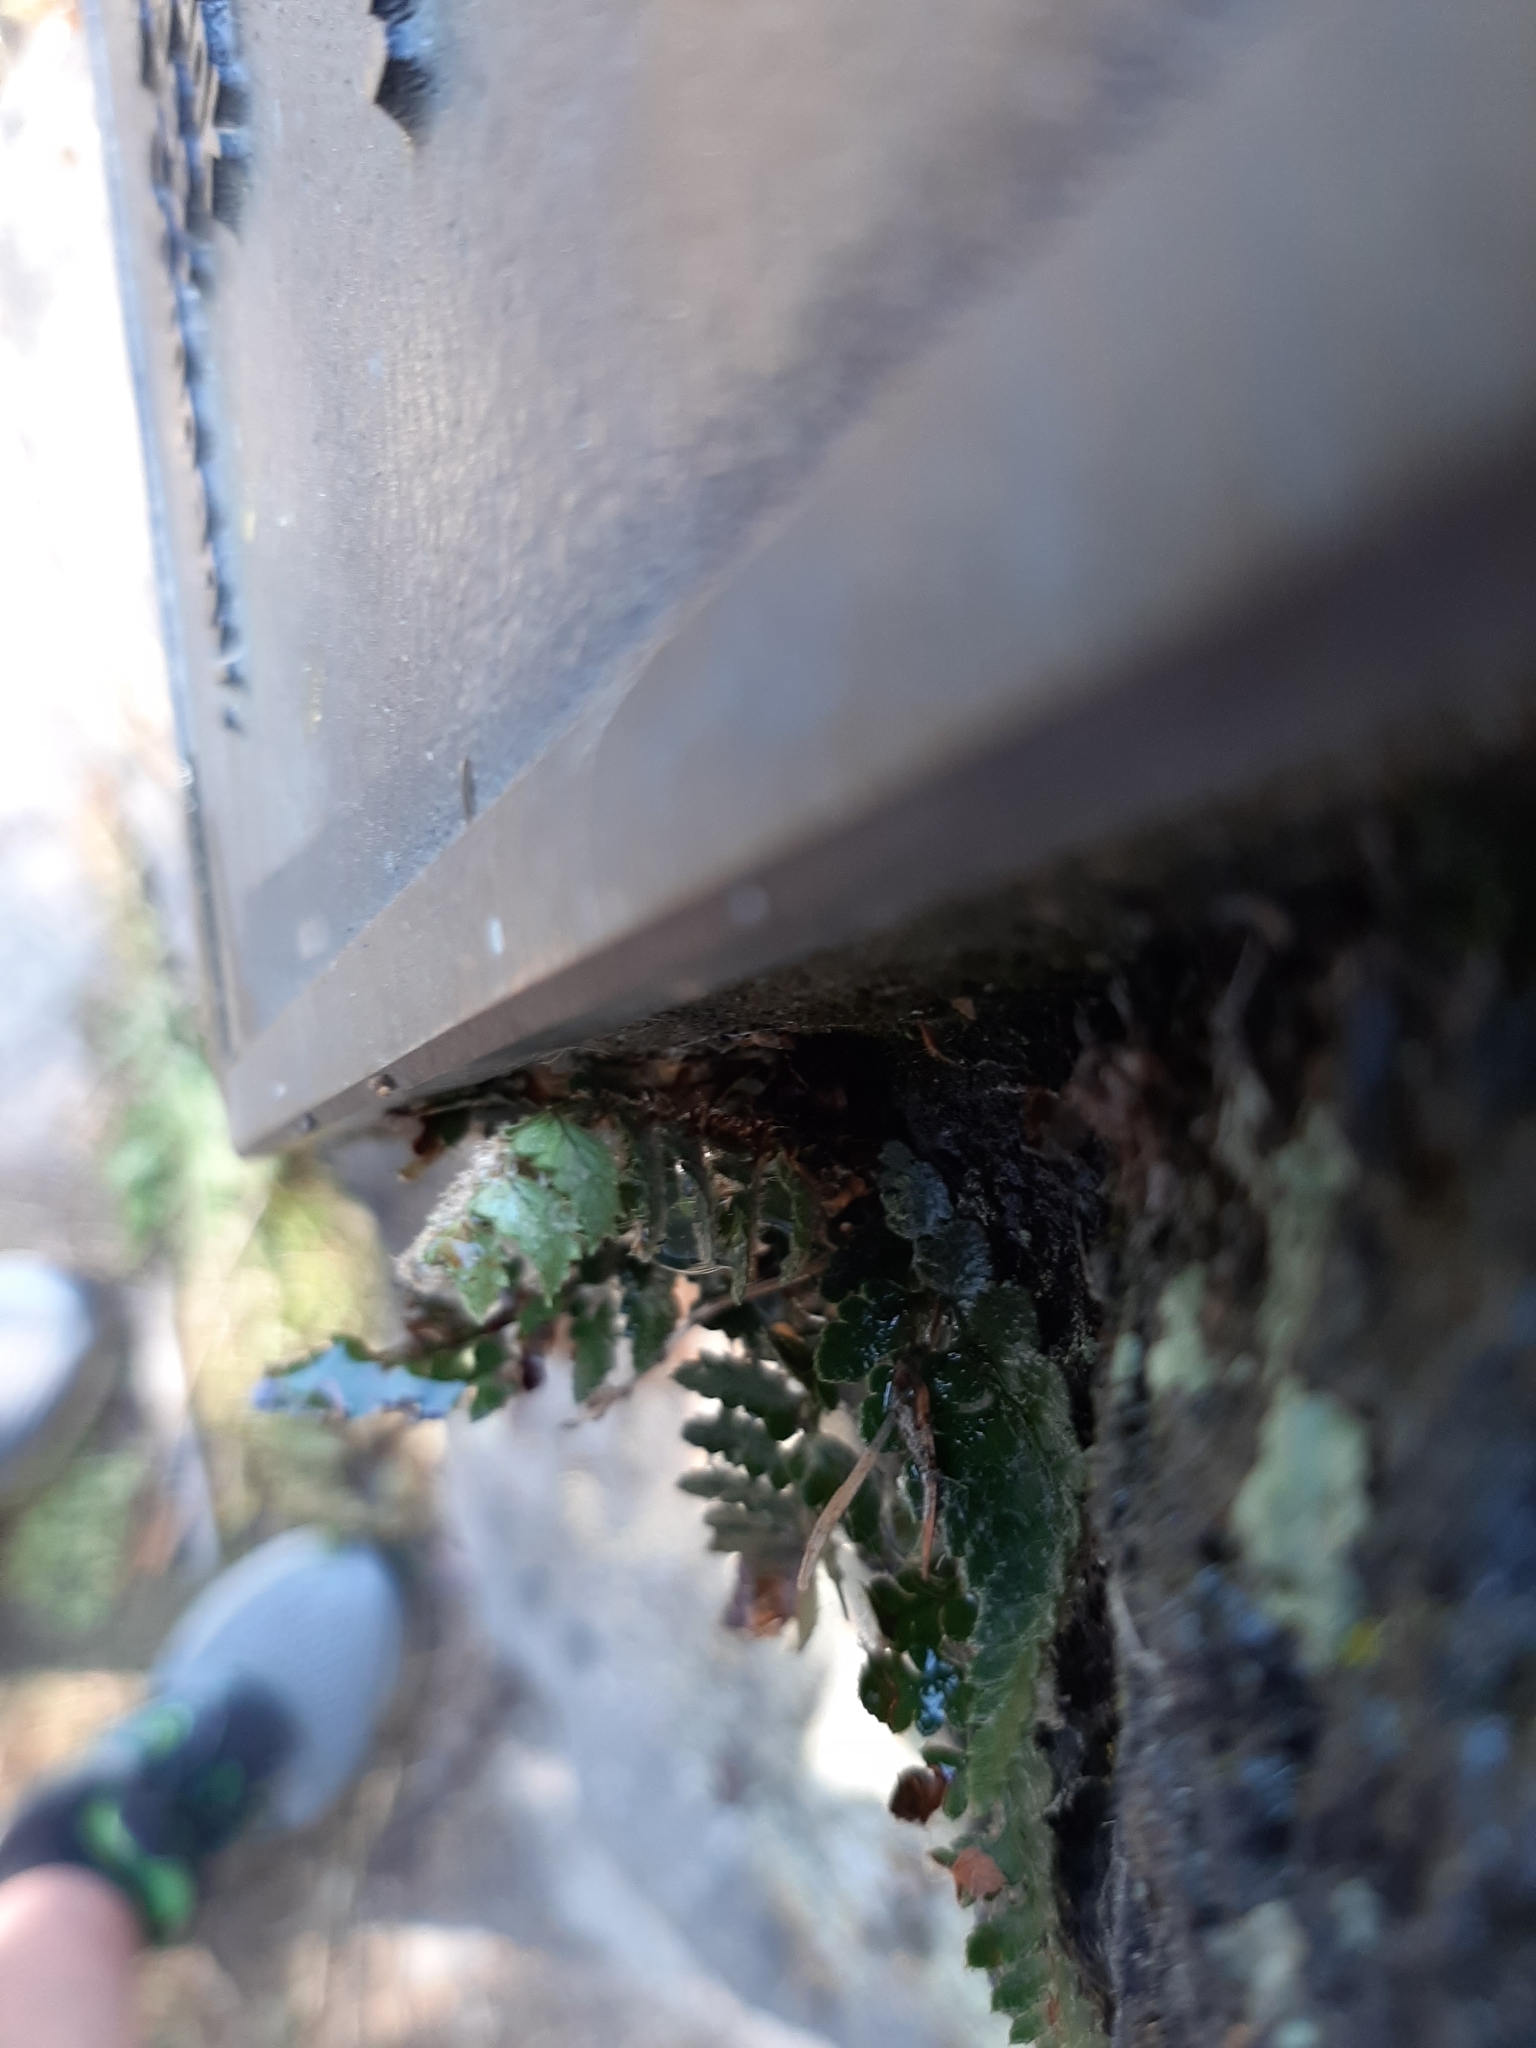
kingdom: Plantae
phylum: Tracheophyta
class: Polypodiopsida
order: Polypodiales
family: Dryopteridaceae
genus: Polystichum
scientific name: Polystichum oculatum
